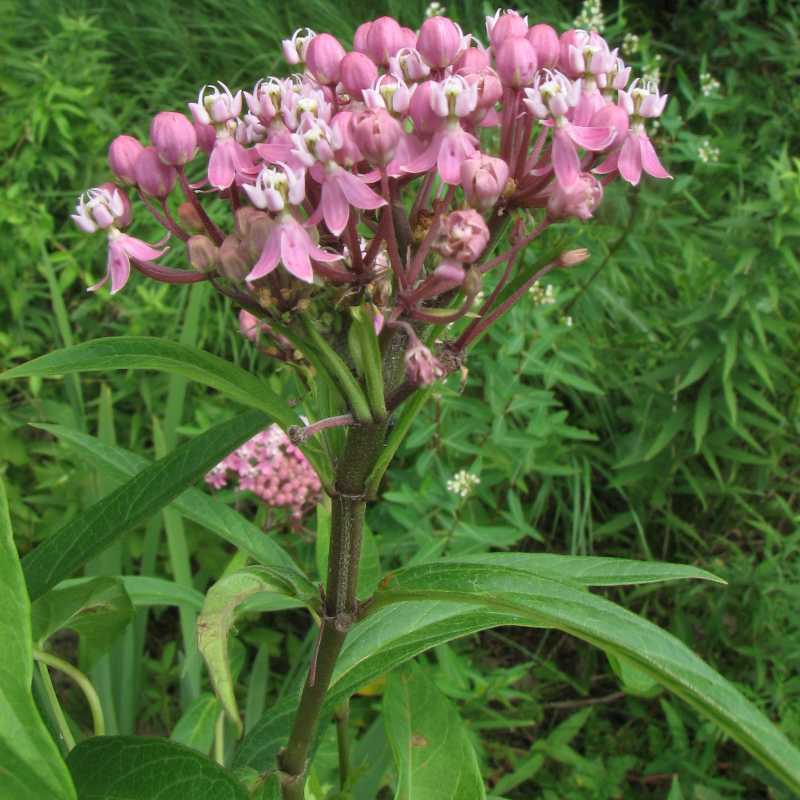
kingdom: Plantae
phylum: Tracheophyta
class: Magnoliopsida
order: Gentianales
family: Apocynaceae
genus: Asclepias
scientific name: Asclepias incarnata
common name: Swamp milkweed
